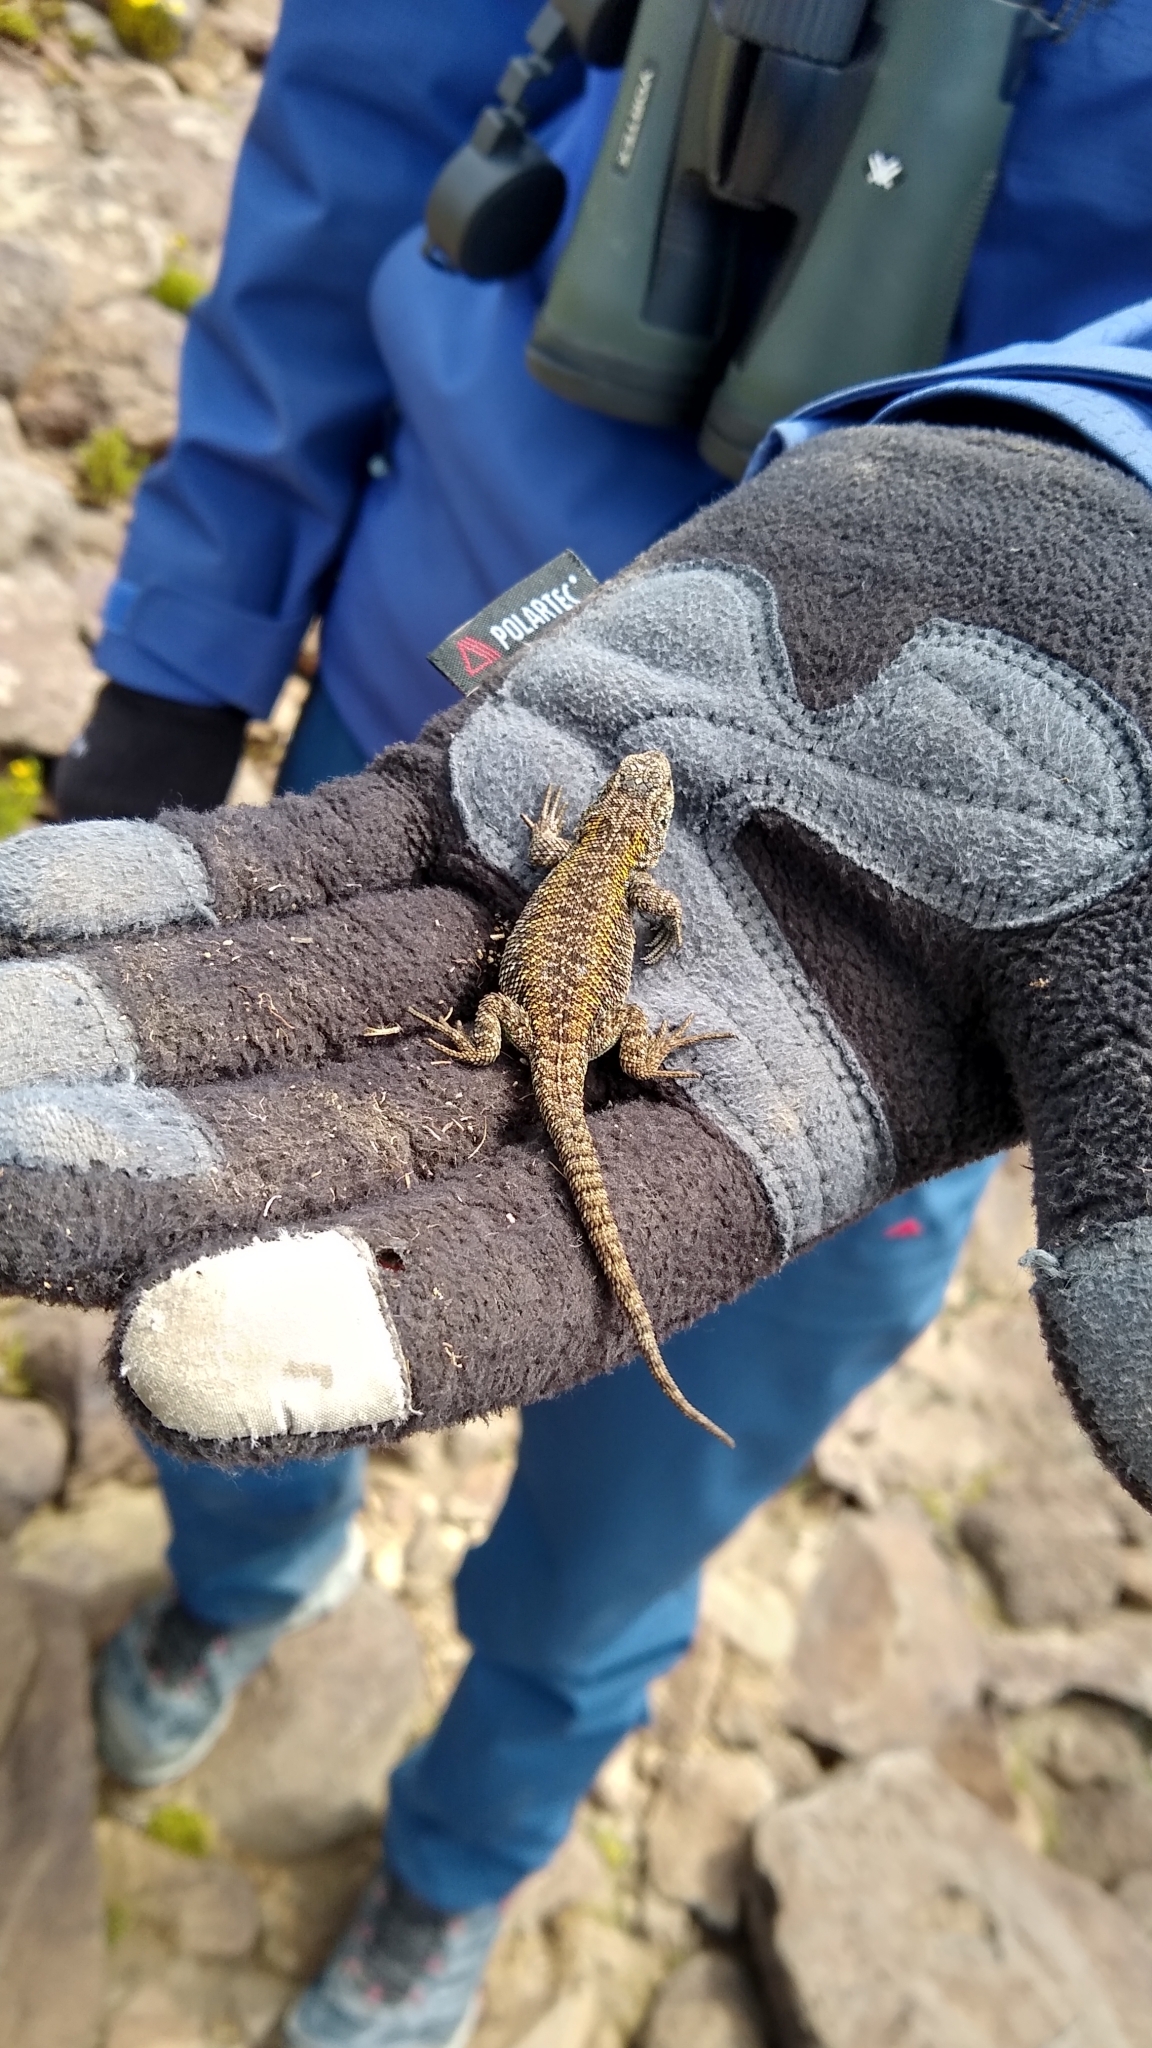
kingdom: Animalia
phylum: Chordata
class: Squamata
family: Liolaemidae
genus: Liolaemus
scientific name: Liolaemus kolengh
